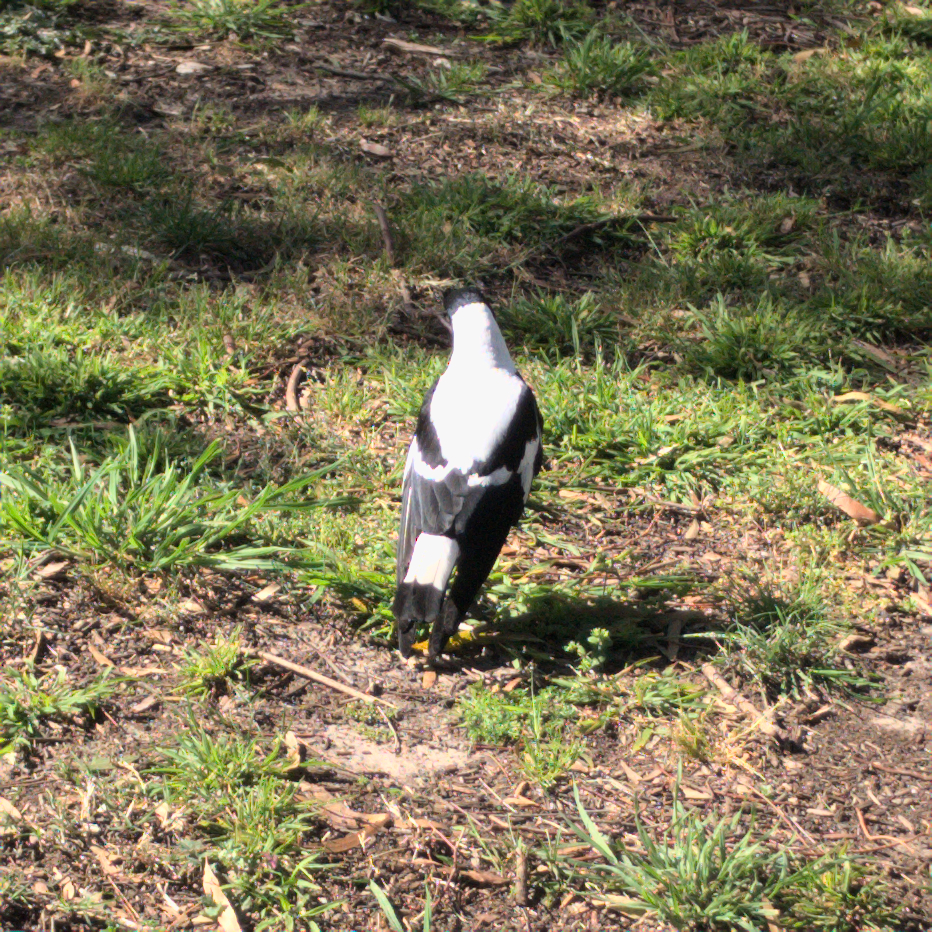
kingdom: Animalia
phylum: Chordata
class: Aves
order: Passeriformes
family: Cracticidae
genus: Gymnorhina
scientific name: Gymnorhina tibicen
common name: Australian magpie
